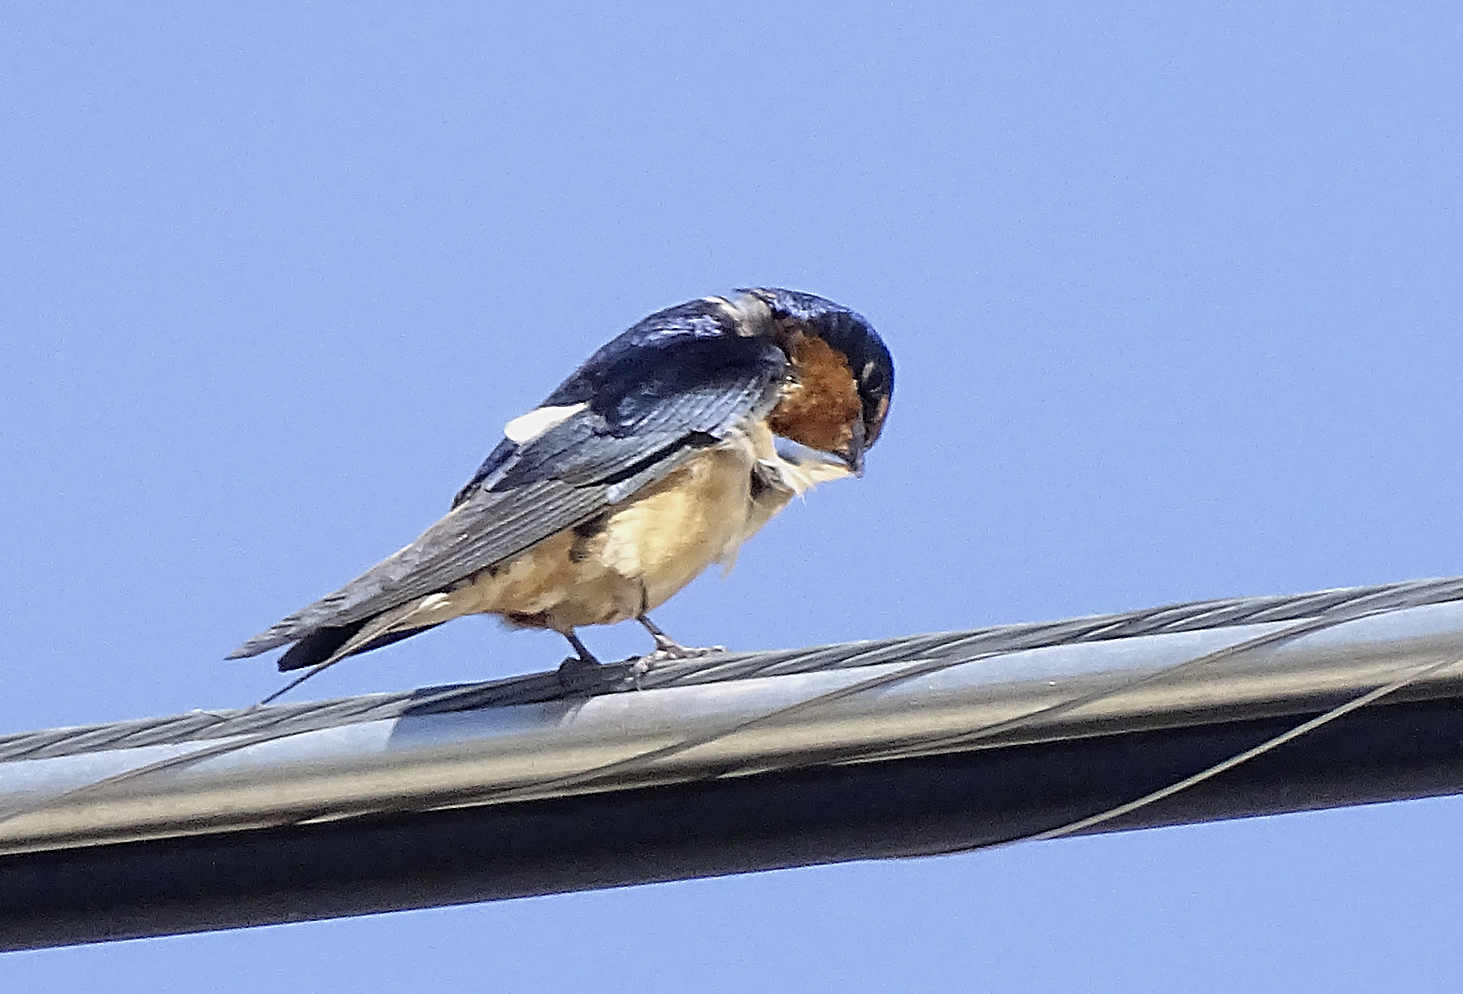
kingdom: Animalia
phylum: Chordata
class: Aves
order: Passeriformes
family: Hirundinidae
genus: Hirundo
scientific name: Hirundo rustica
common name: Barn swallow
